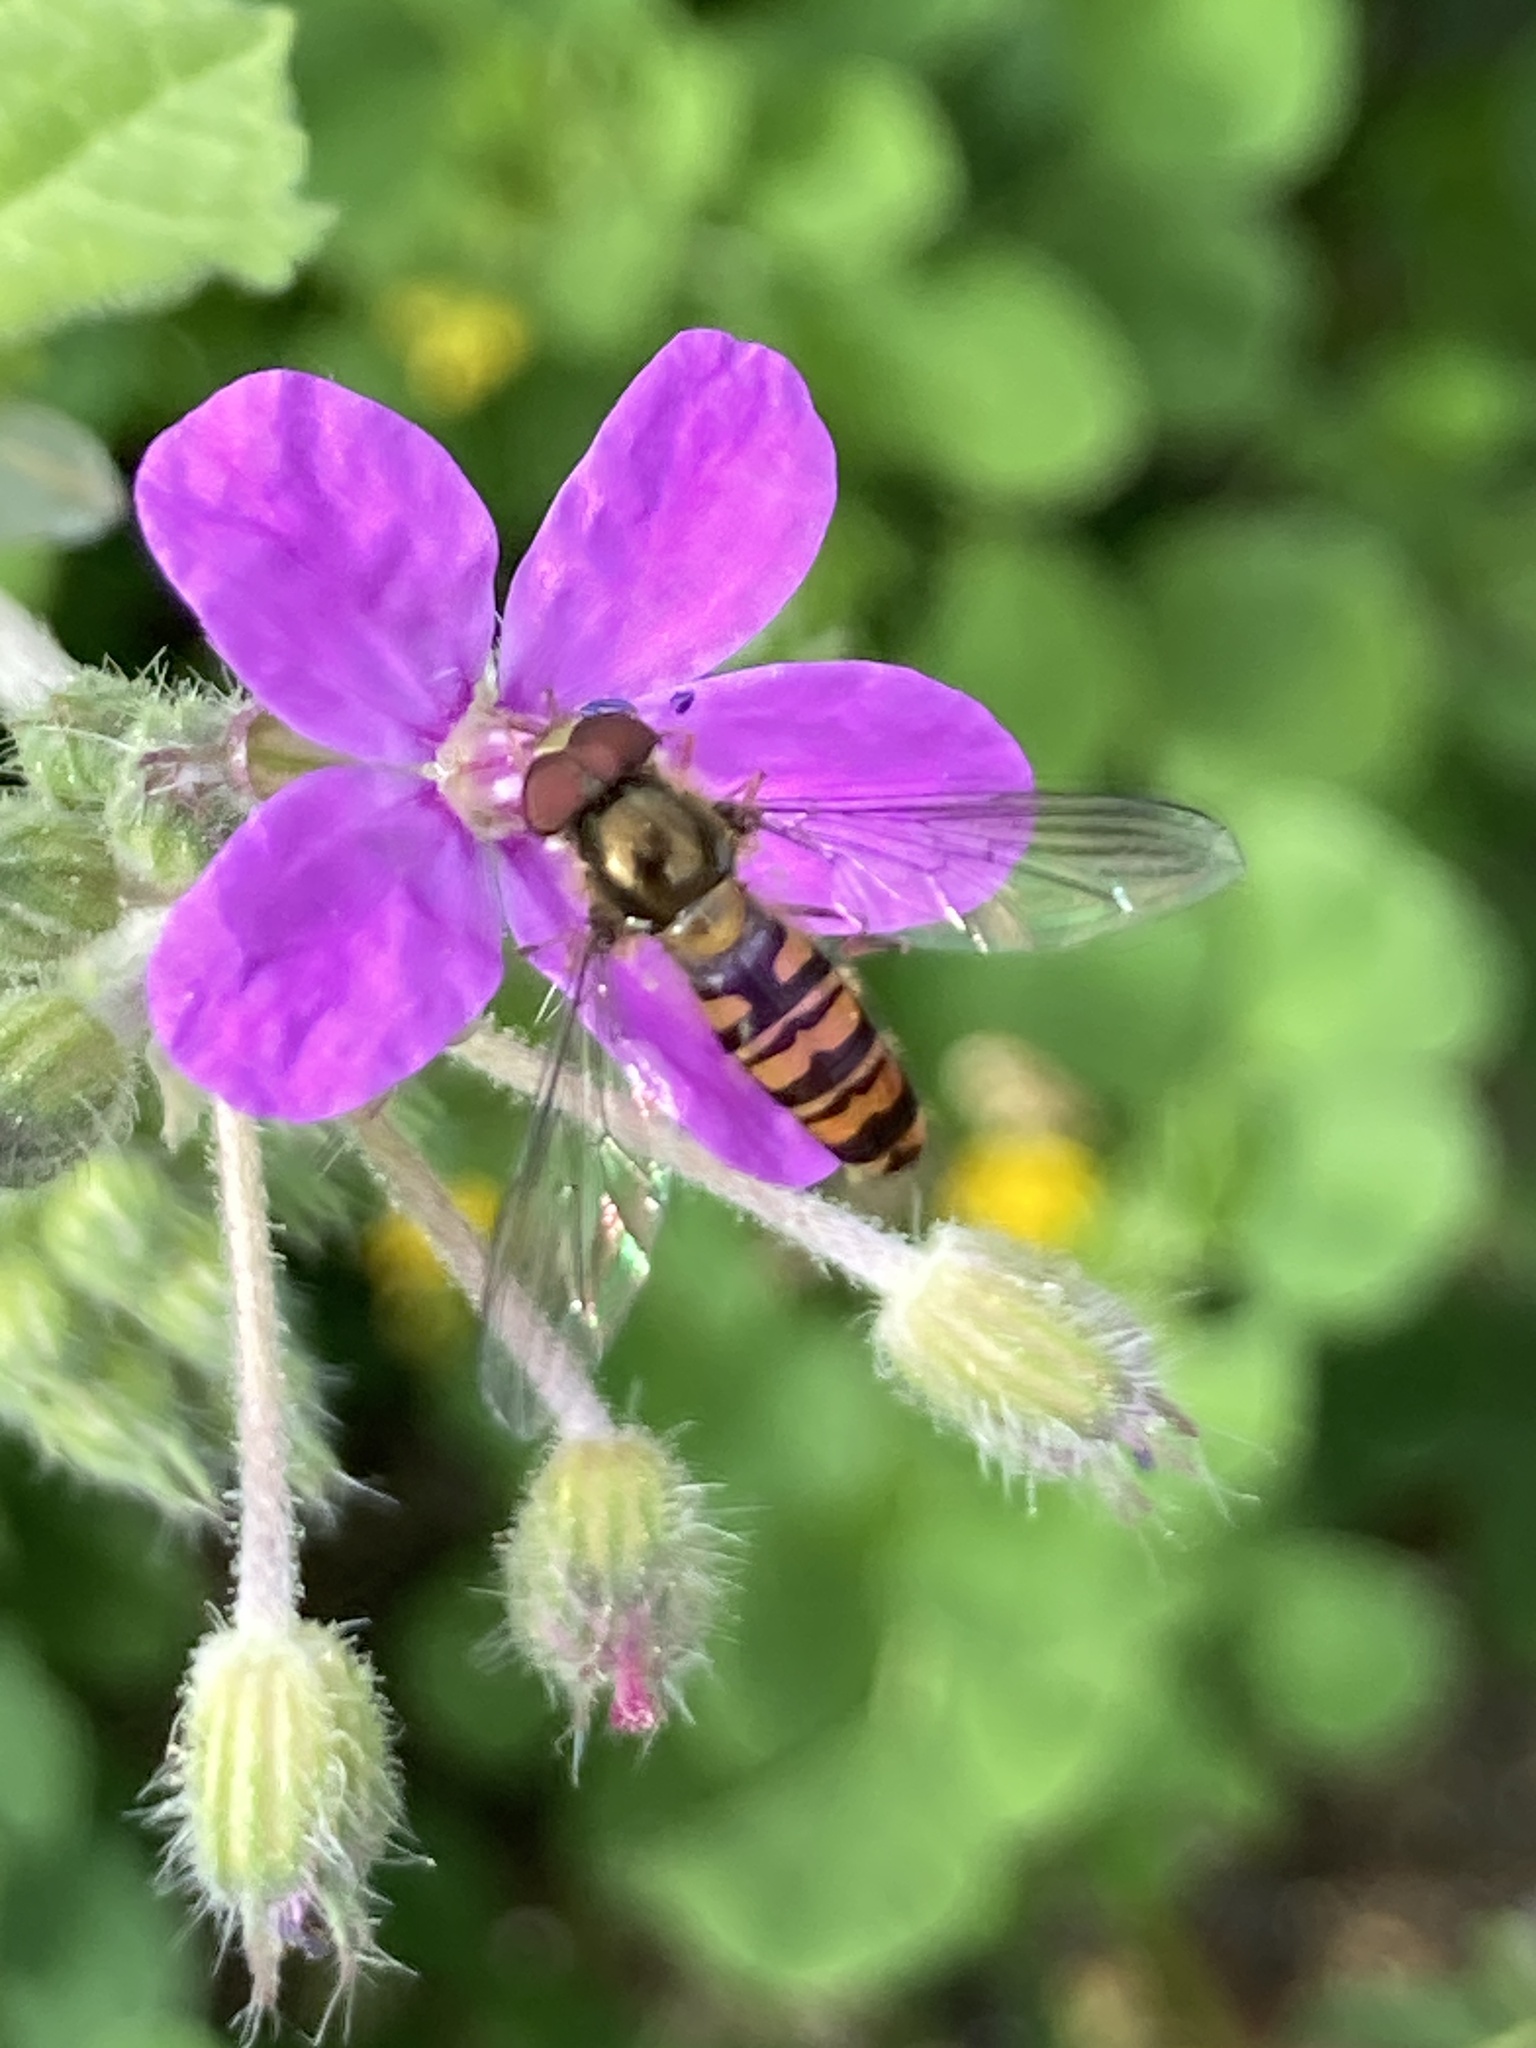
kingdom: Animalia
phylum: Arthropoda
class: Insecta
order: Diptera
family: Syrphidae
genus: Episyrphus
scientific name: Episyrphus balteatus
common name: Marmalade hoverfly
